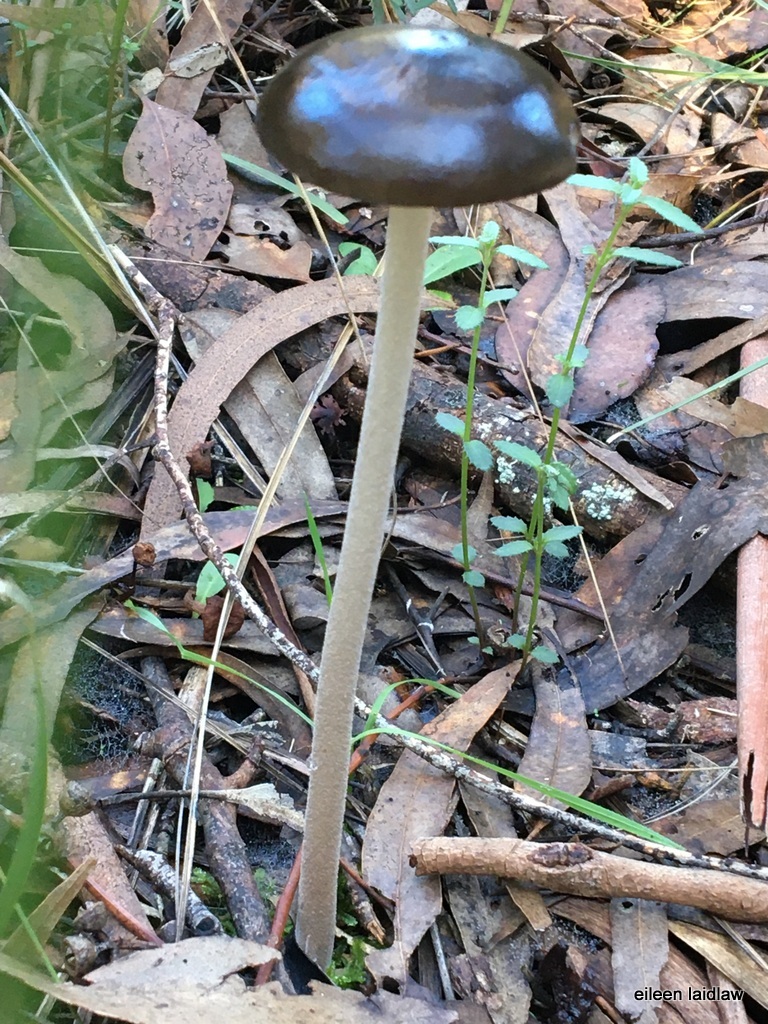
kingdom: Fungi
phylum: Basidiomycota
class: Agaricomycetes
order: Agaricales
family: Physalacriaceae
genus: Hymenopellis
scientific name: Hymenopellis gigaspora
